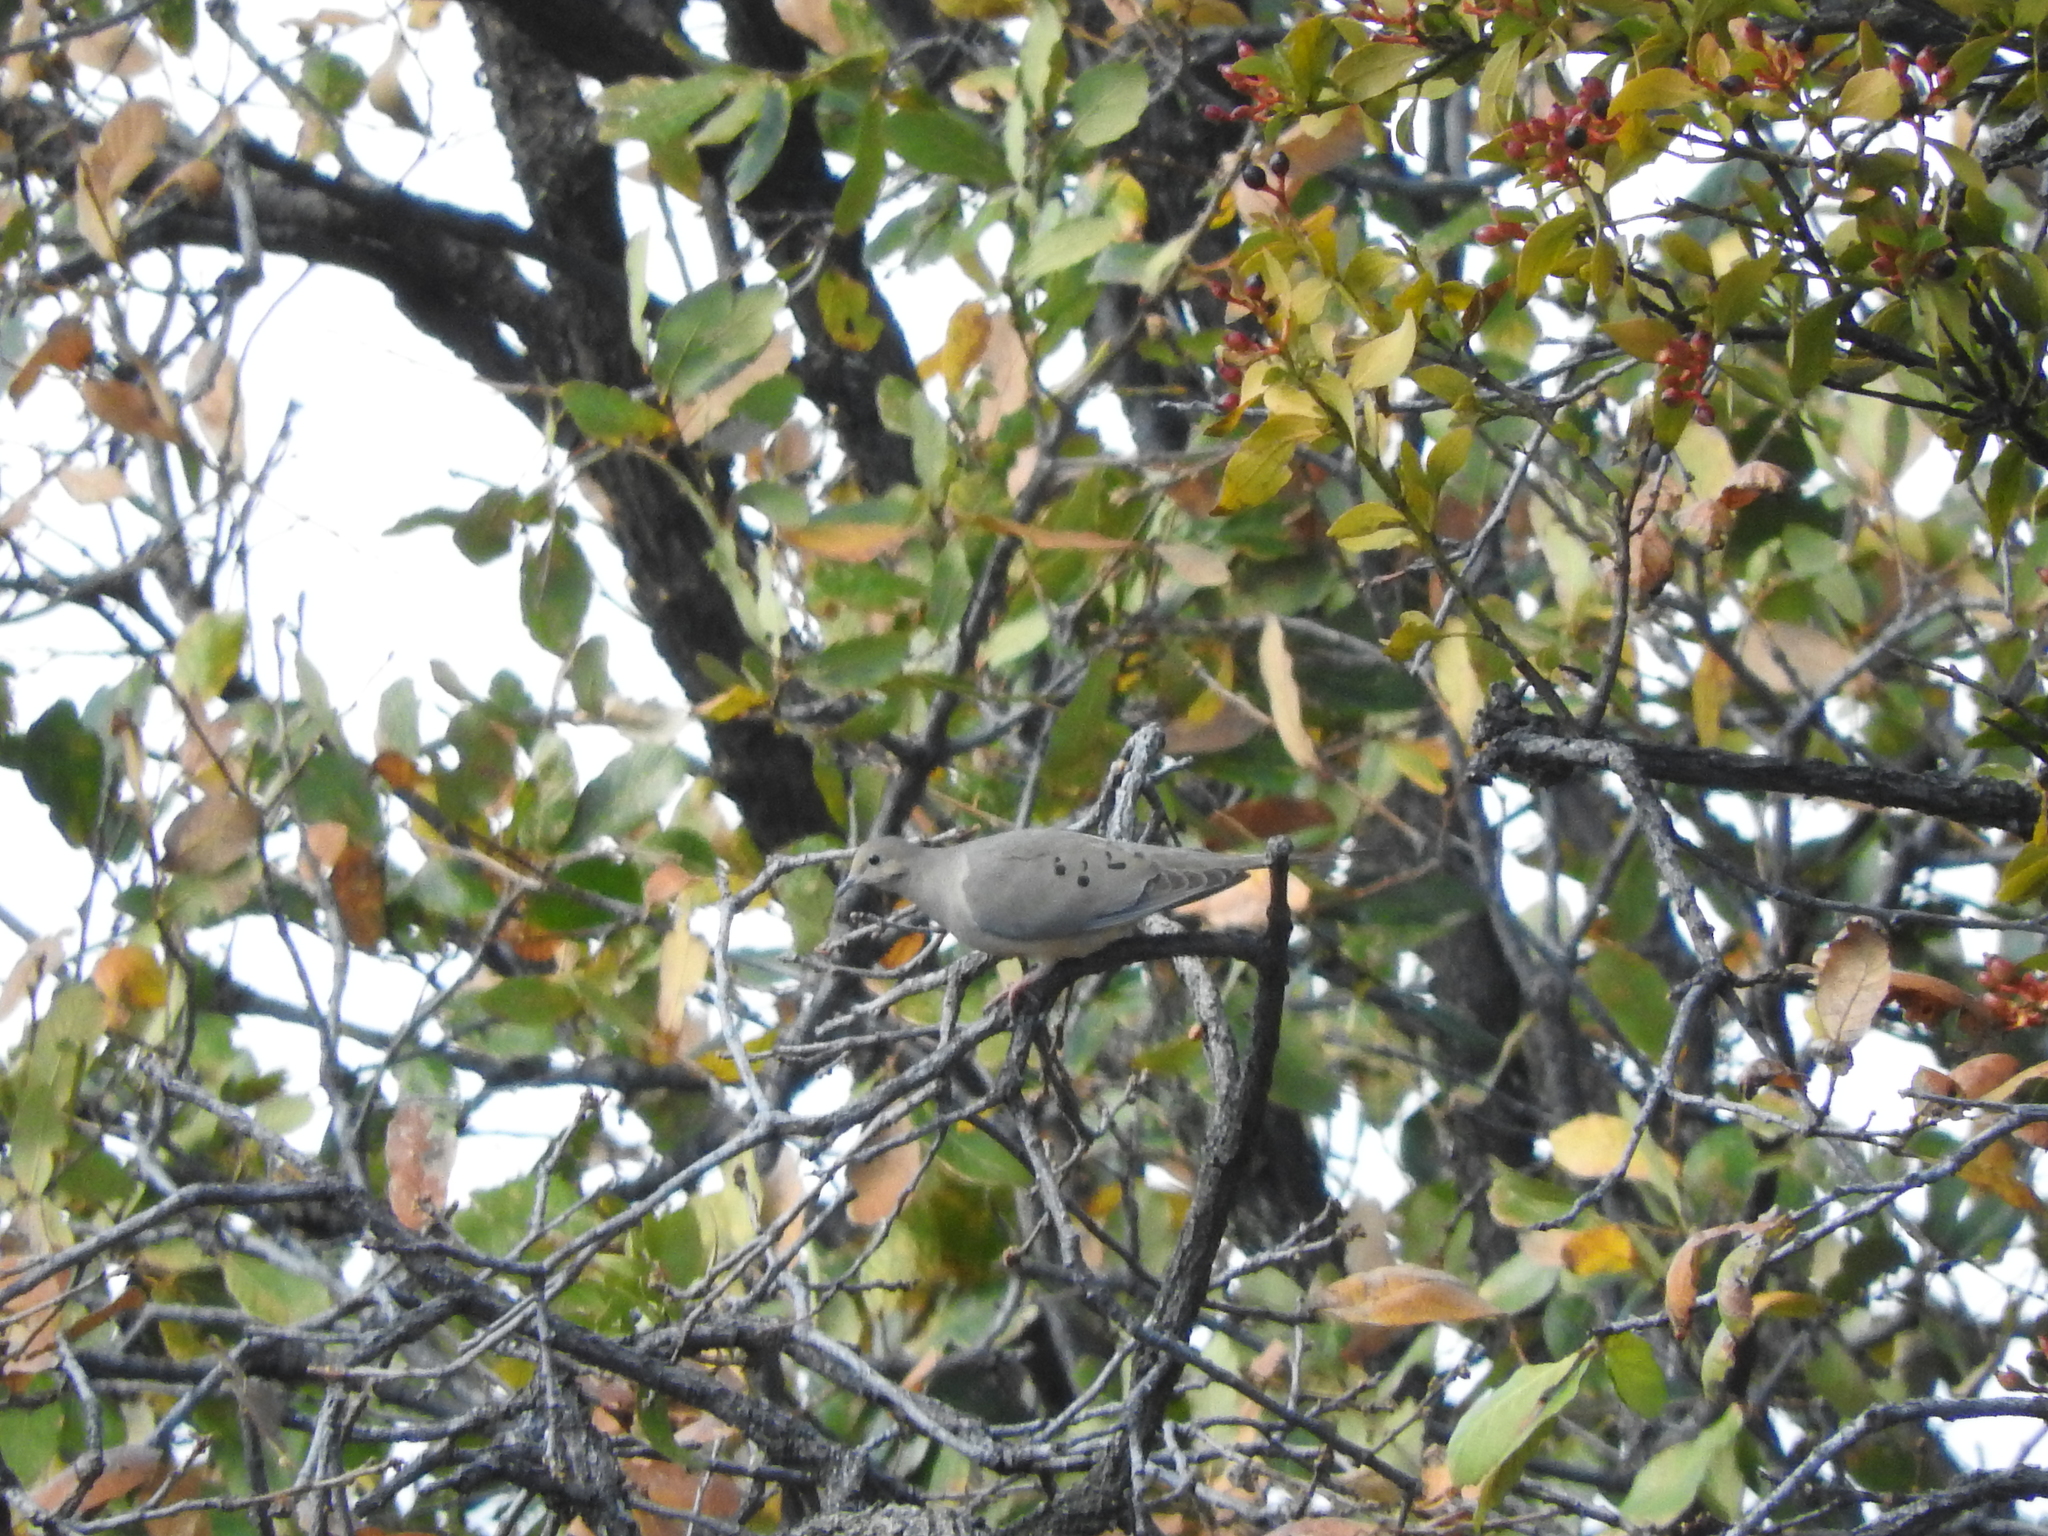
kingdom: Animalia
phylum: Chordata
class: Aves
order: Columbiformes
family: Columbidae
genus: Zenaida
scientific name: Zenaida macroura
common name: Mourning dove
